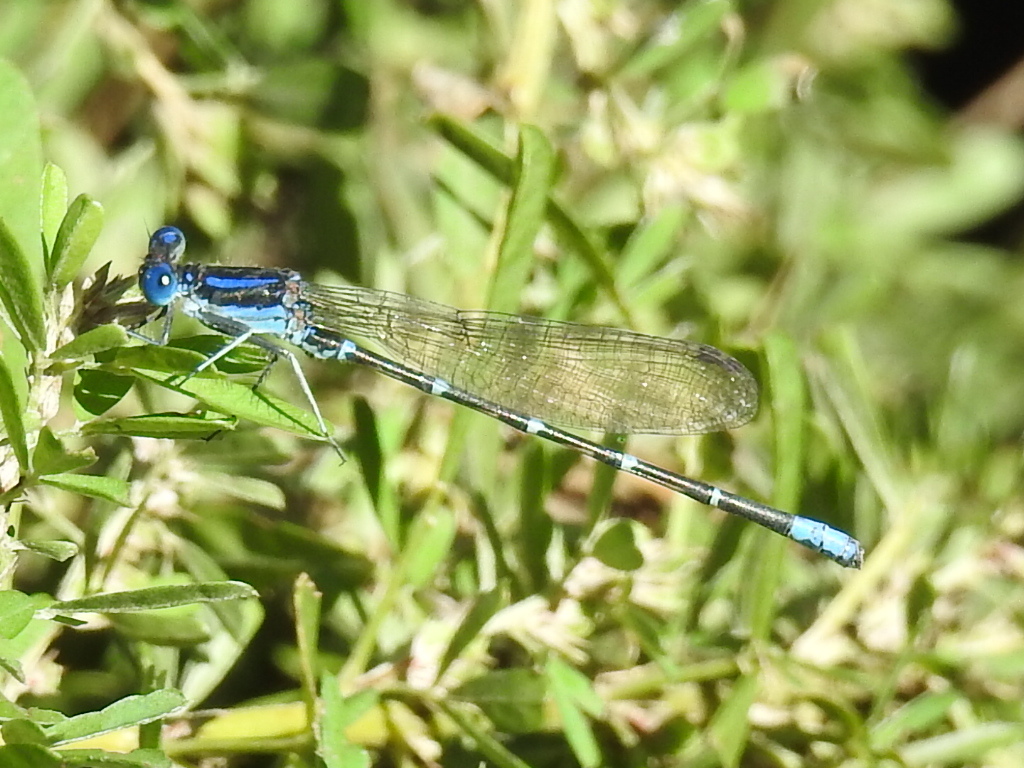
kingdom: Animalia
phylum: Arthropoda
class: Insecta
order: Odonata
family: Coenagrionidae
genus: Argia
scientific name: Argia sedula
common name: Blue-ringed dancer
